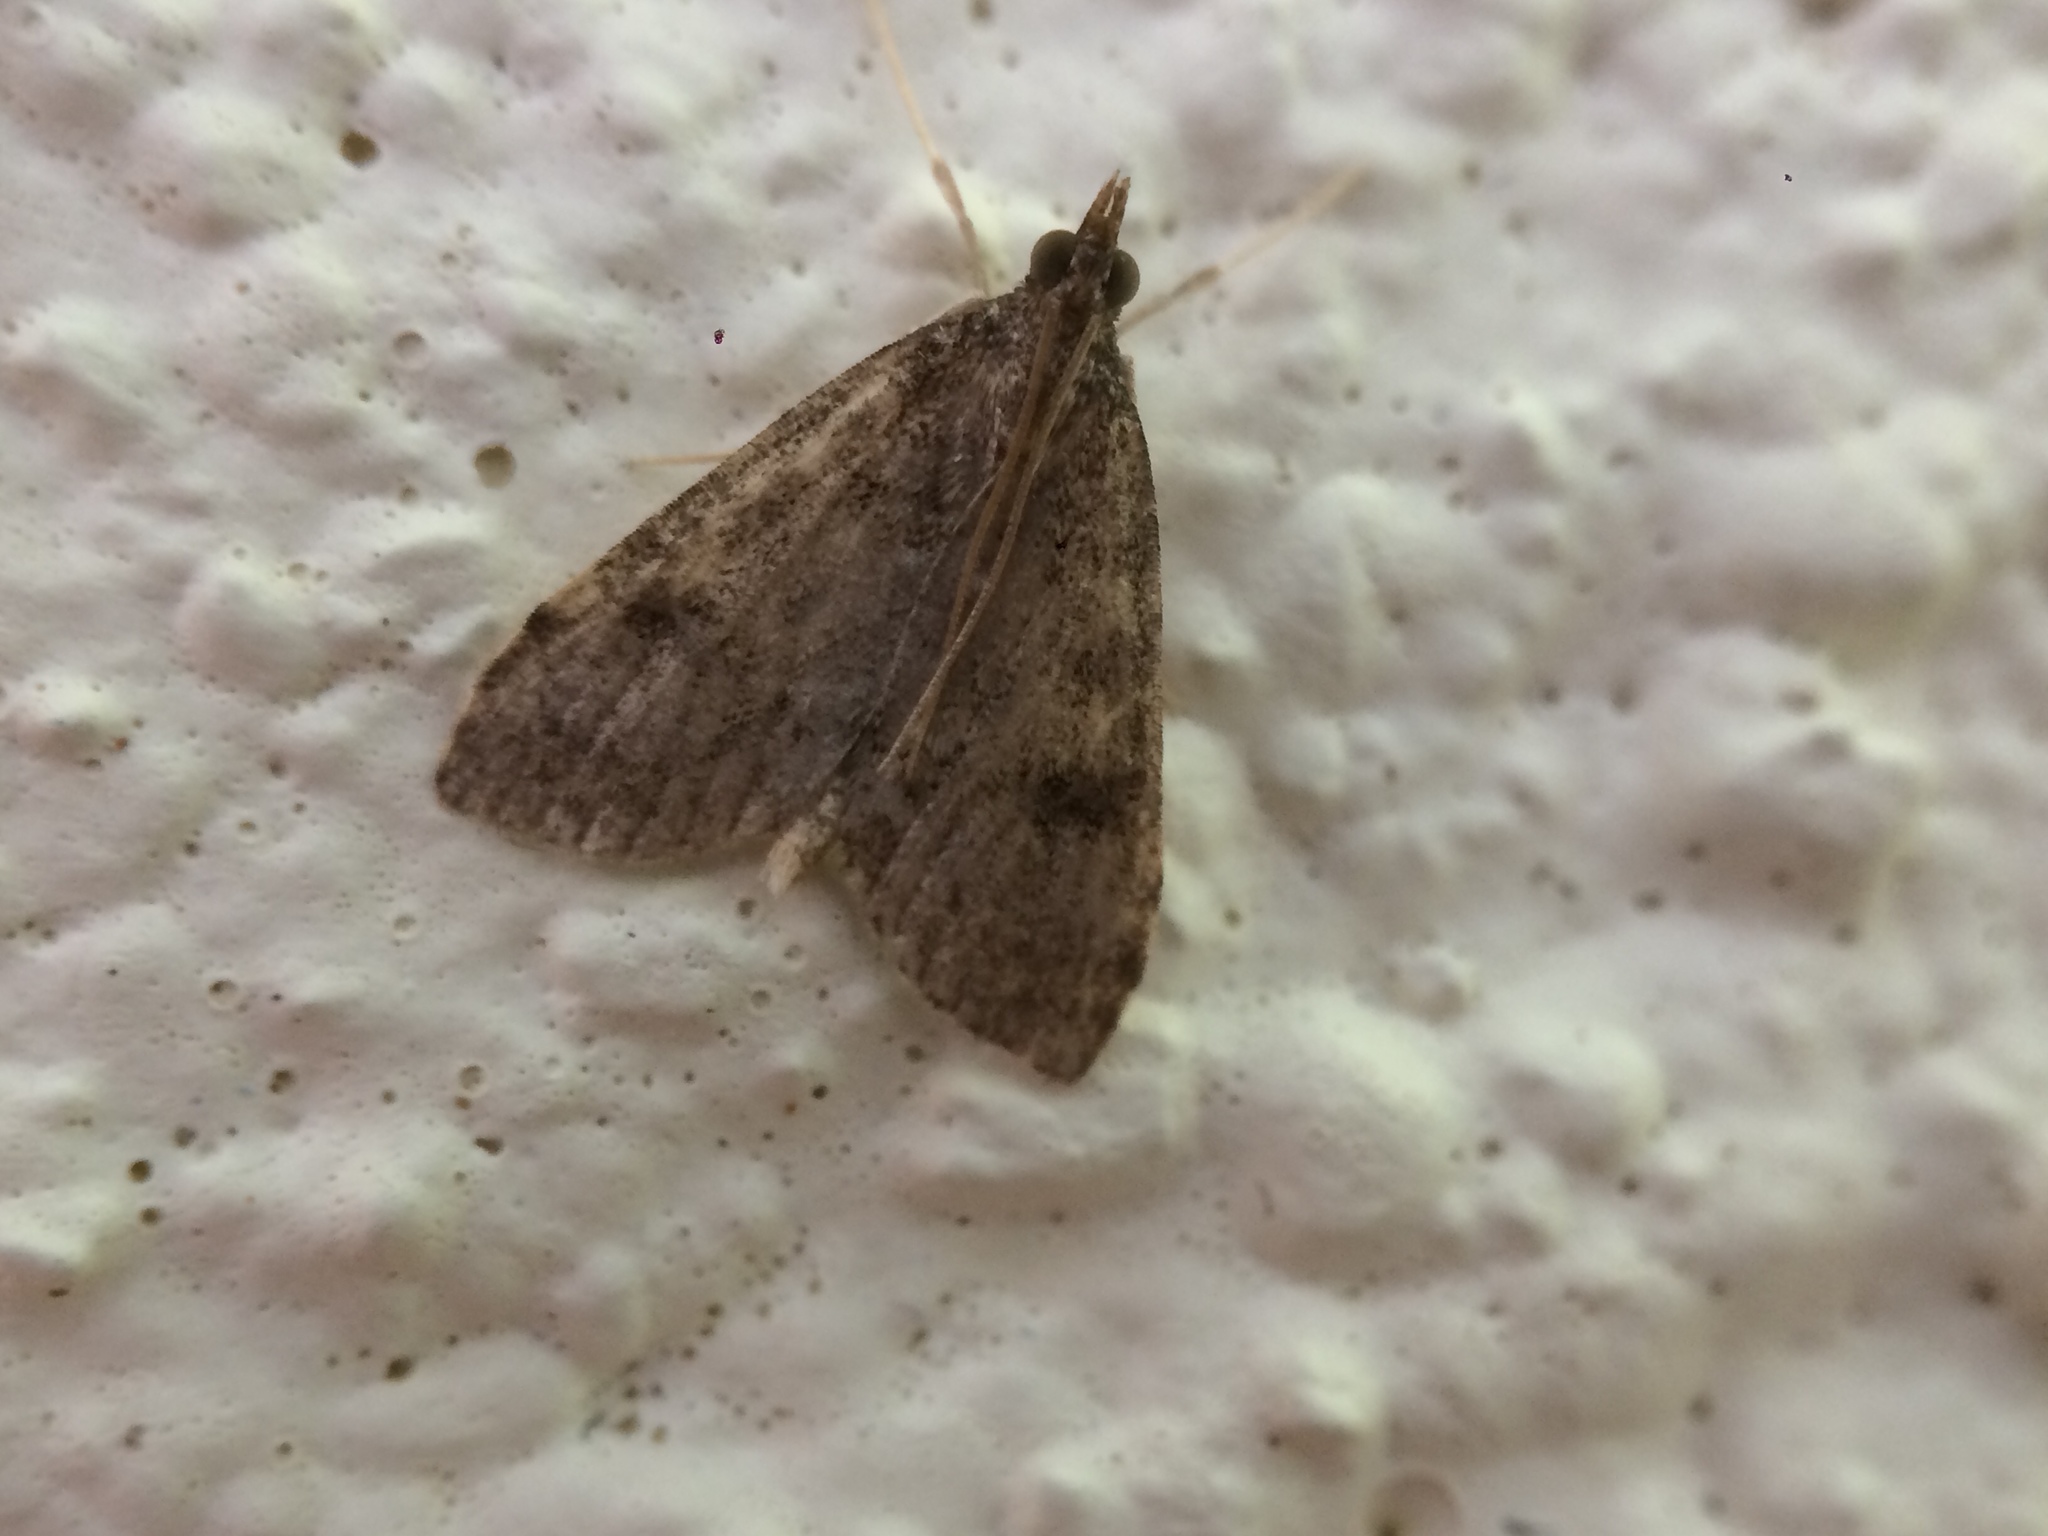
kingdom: Animalia
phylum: Arthropoda
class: Insecta
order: Lepidoptera
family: Crambidae
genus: Udea
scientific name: Udea prunalis
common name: Dusky pearl
